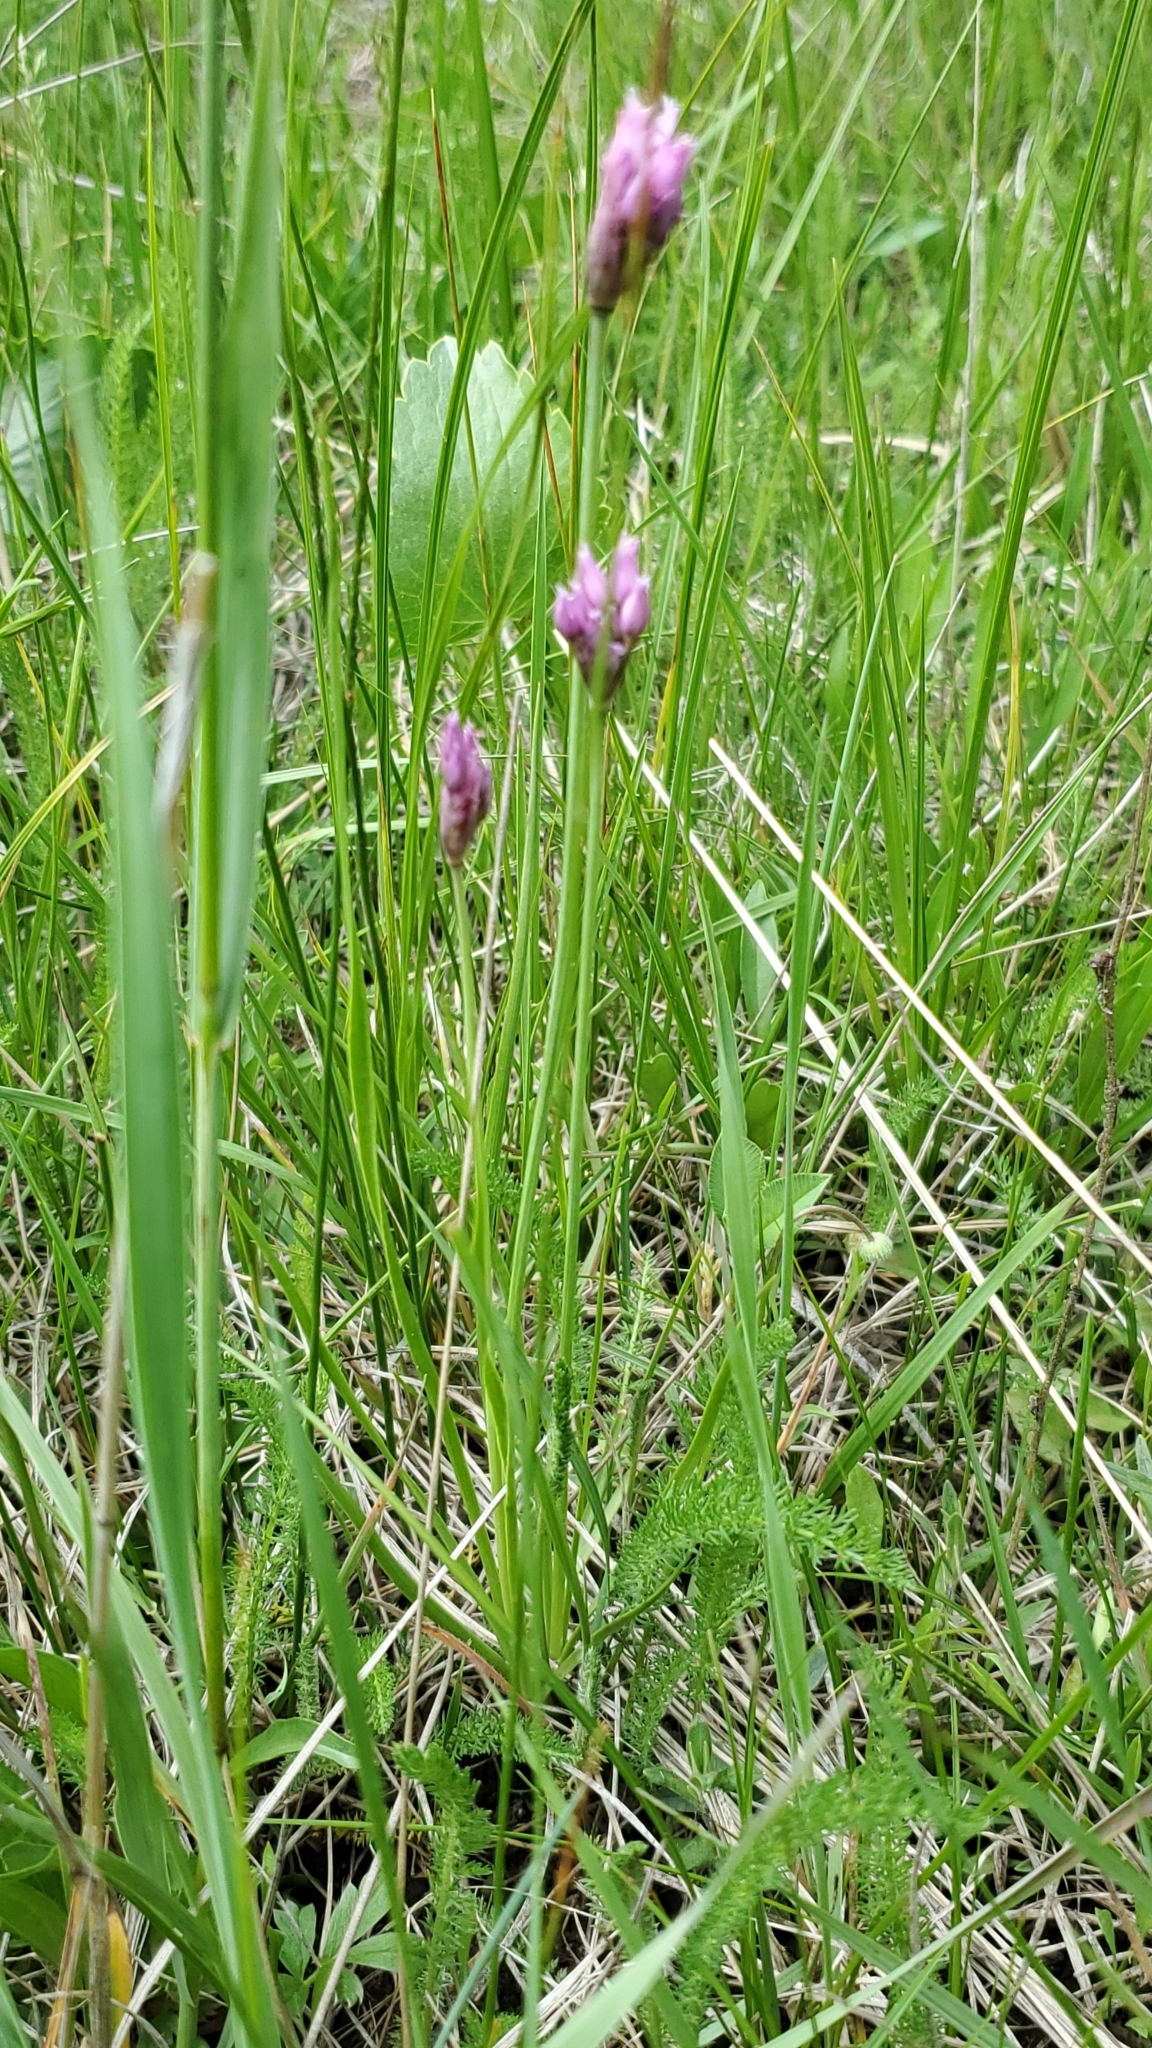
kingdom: Plantae
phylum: Tracheophyta
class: Liliopsida
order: Asparagales
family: Amaryllidaceae
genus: Allium
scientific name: Allium geyeri
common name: Geyer's onion
